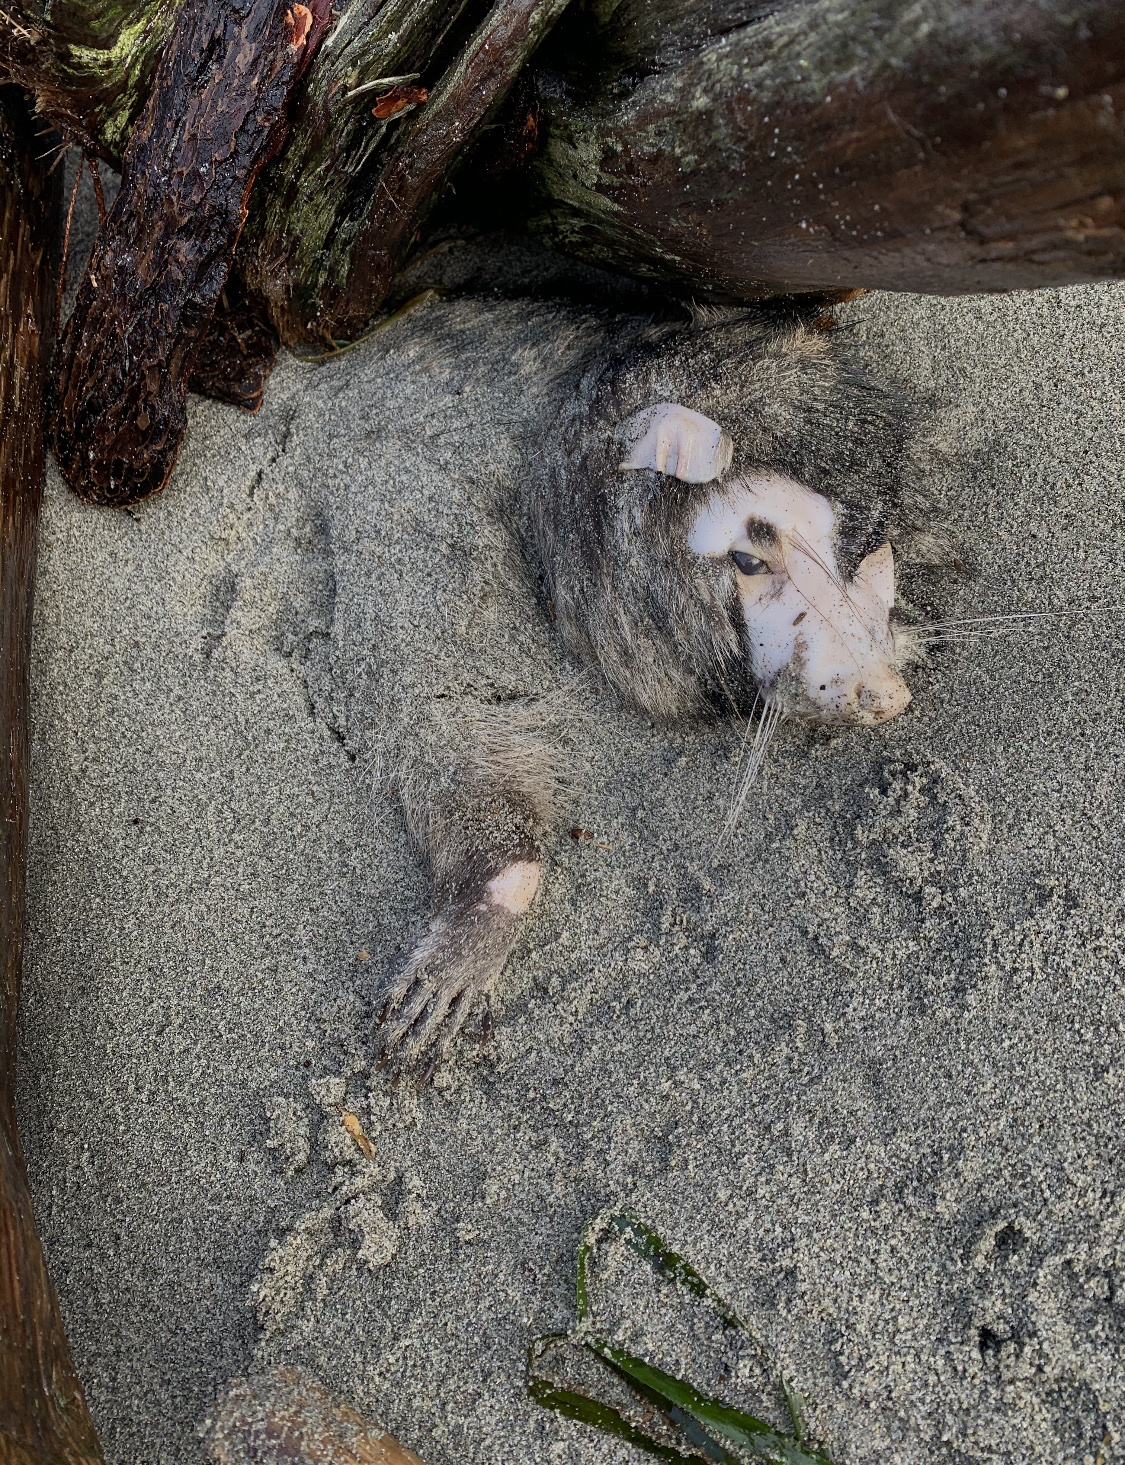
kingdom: Animalia
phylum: Chordata
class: Mammalia
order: Carnivora
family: Procyonidae
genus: Procyon
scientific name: Procyon lotor
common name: Raccoon
